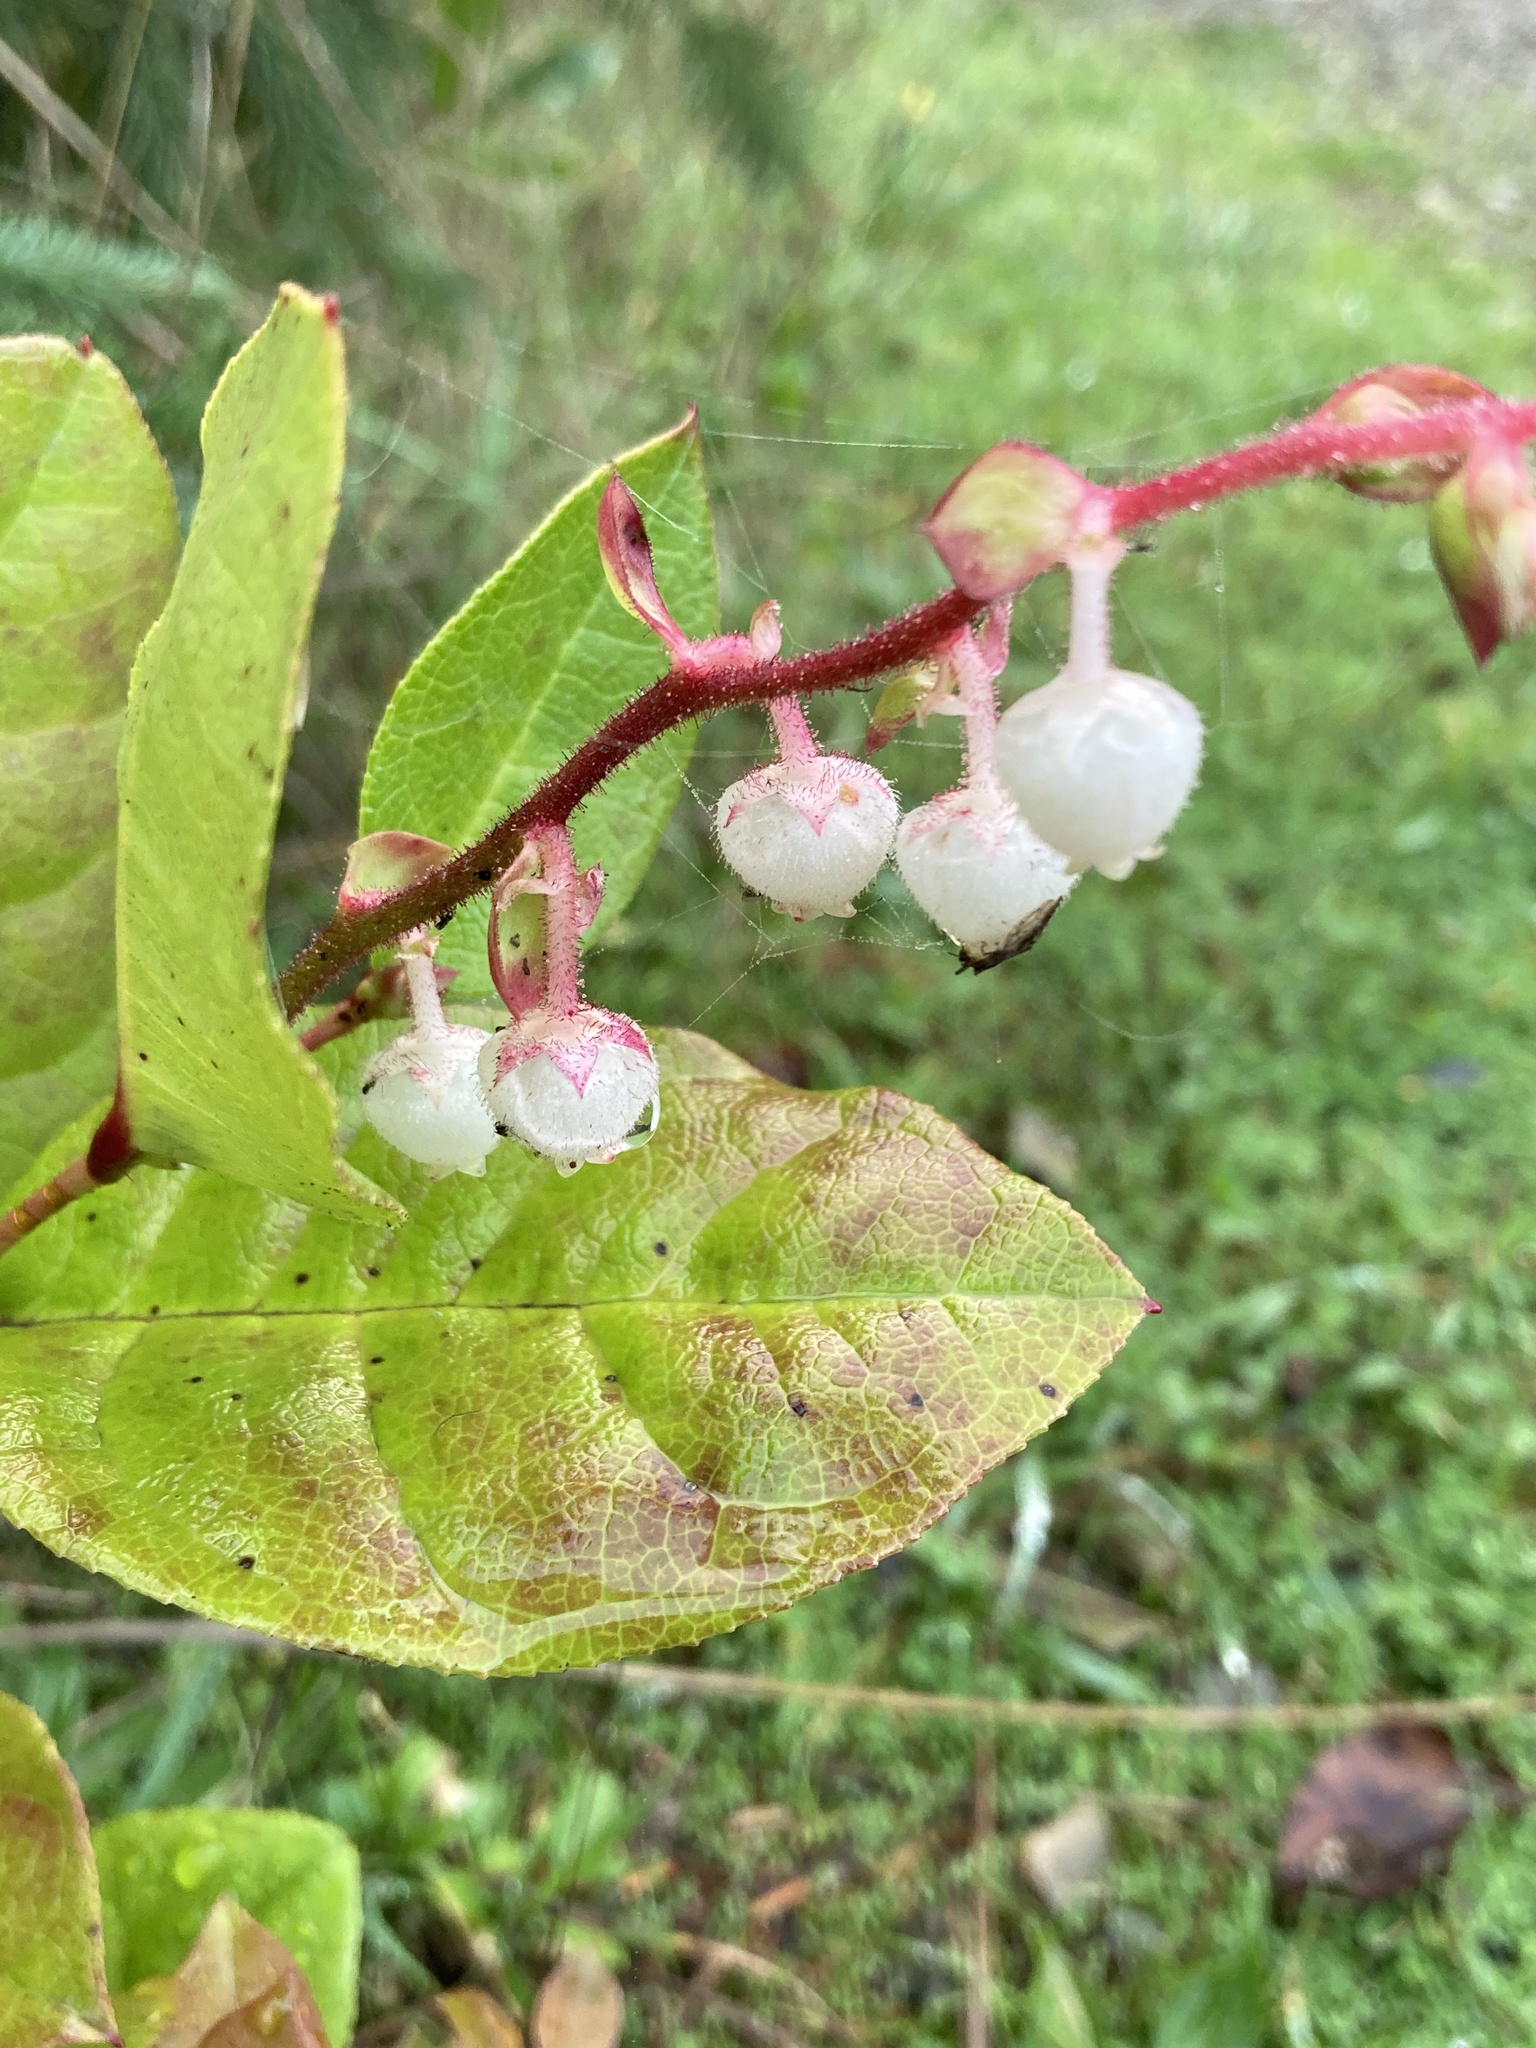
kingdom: Plantae
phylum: Tracheophyta
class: Magnoliopsida
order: Ericales
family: Ericaceae
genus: Gaultheria
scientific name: Gaultheria shallon
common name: Shallon
